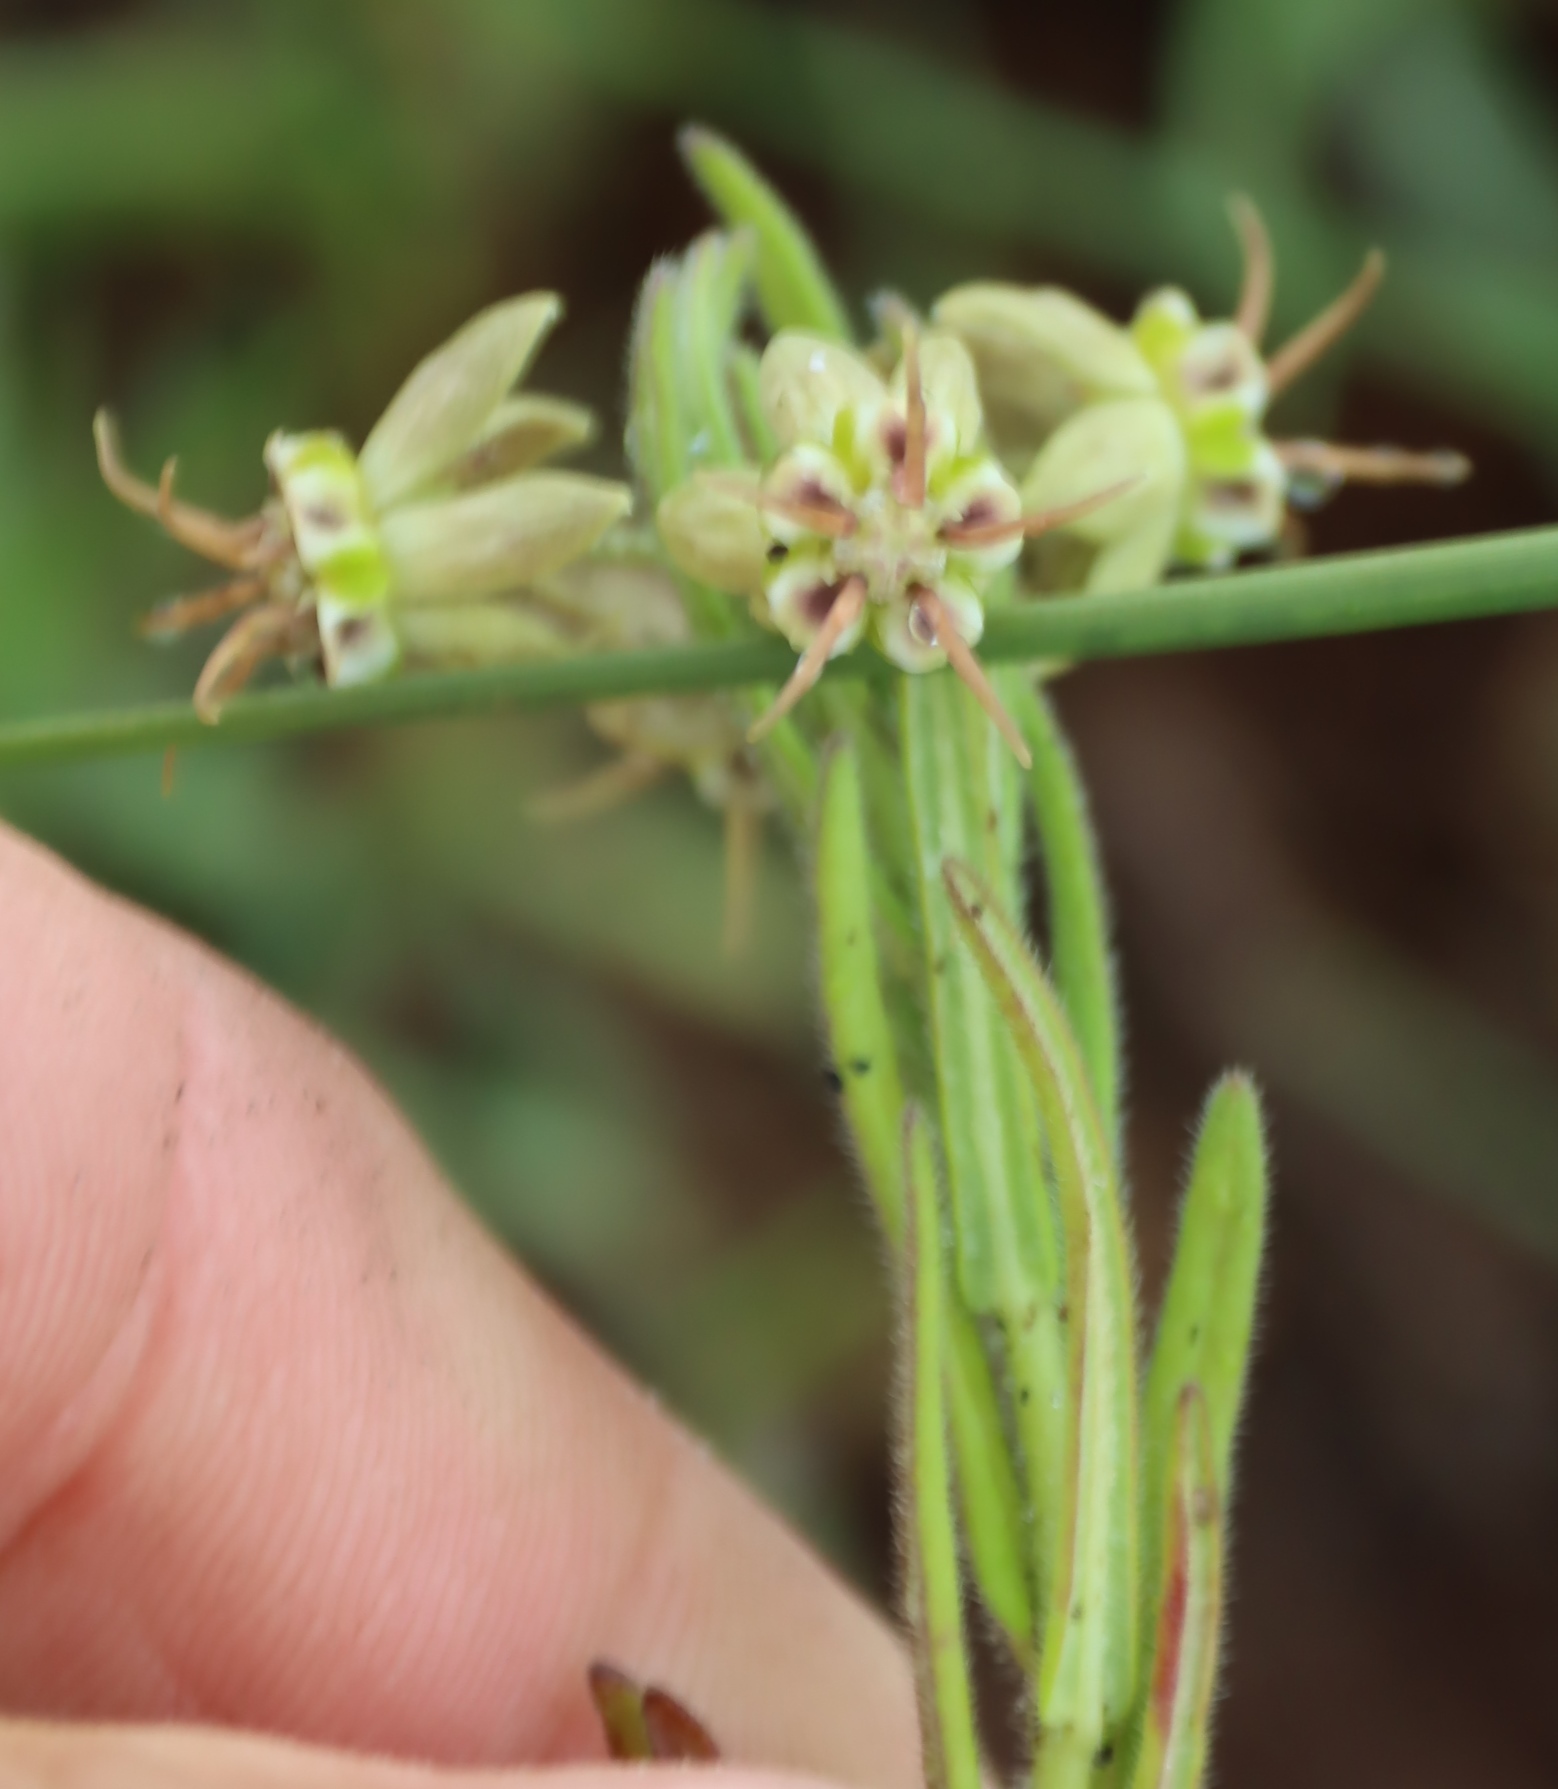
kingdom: Plantae
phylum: Tracheophyta
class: Magnoliopsida
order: Gentianales
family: Apocynaceae
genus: Miraglossum
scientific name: Miraglossum pulchellum
